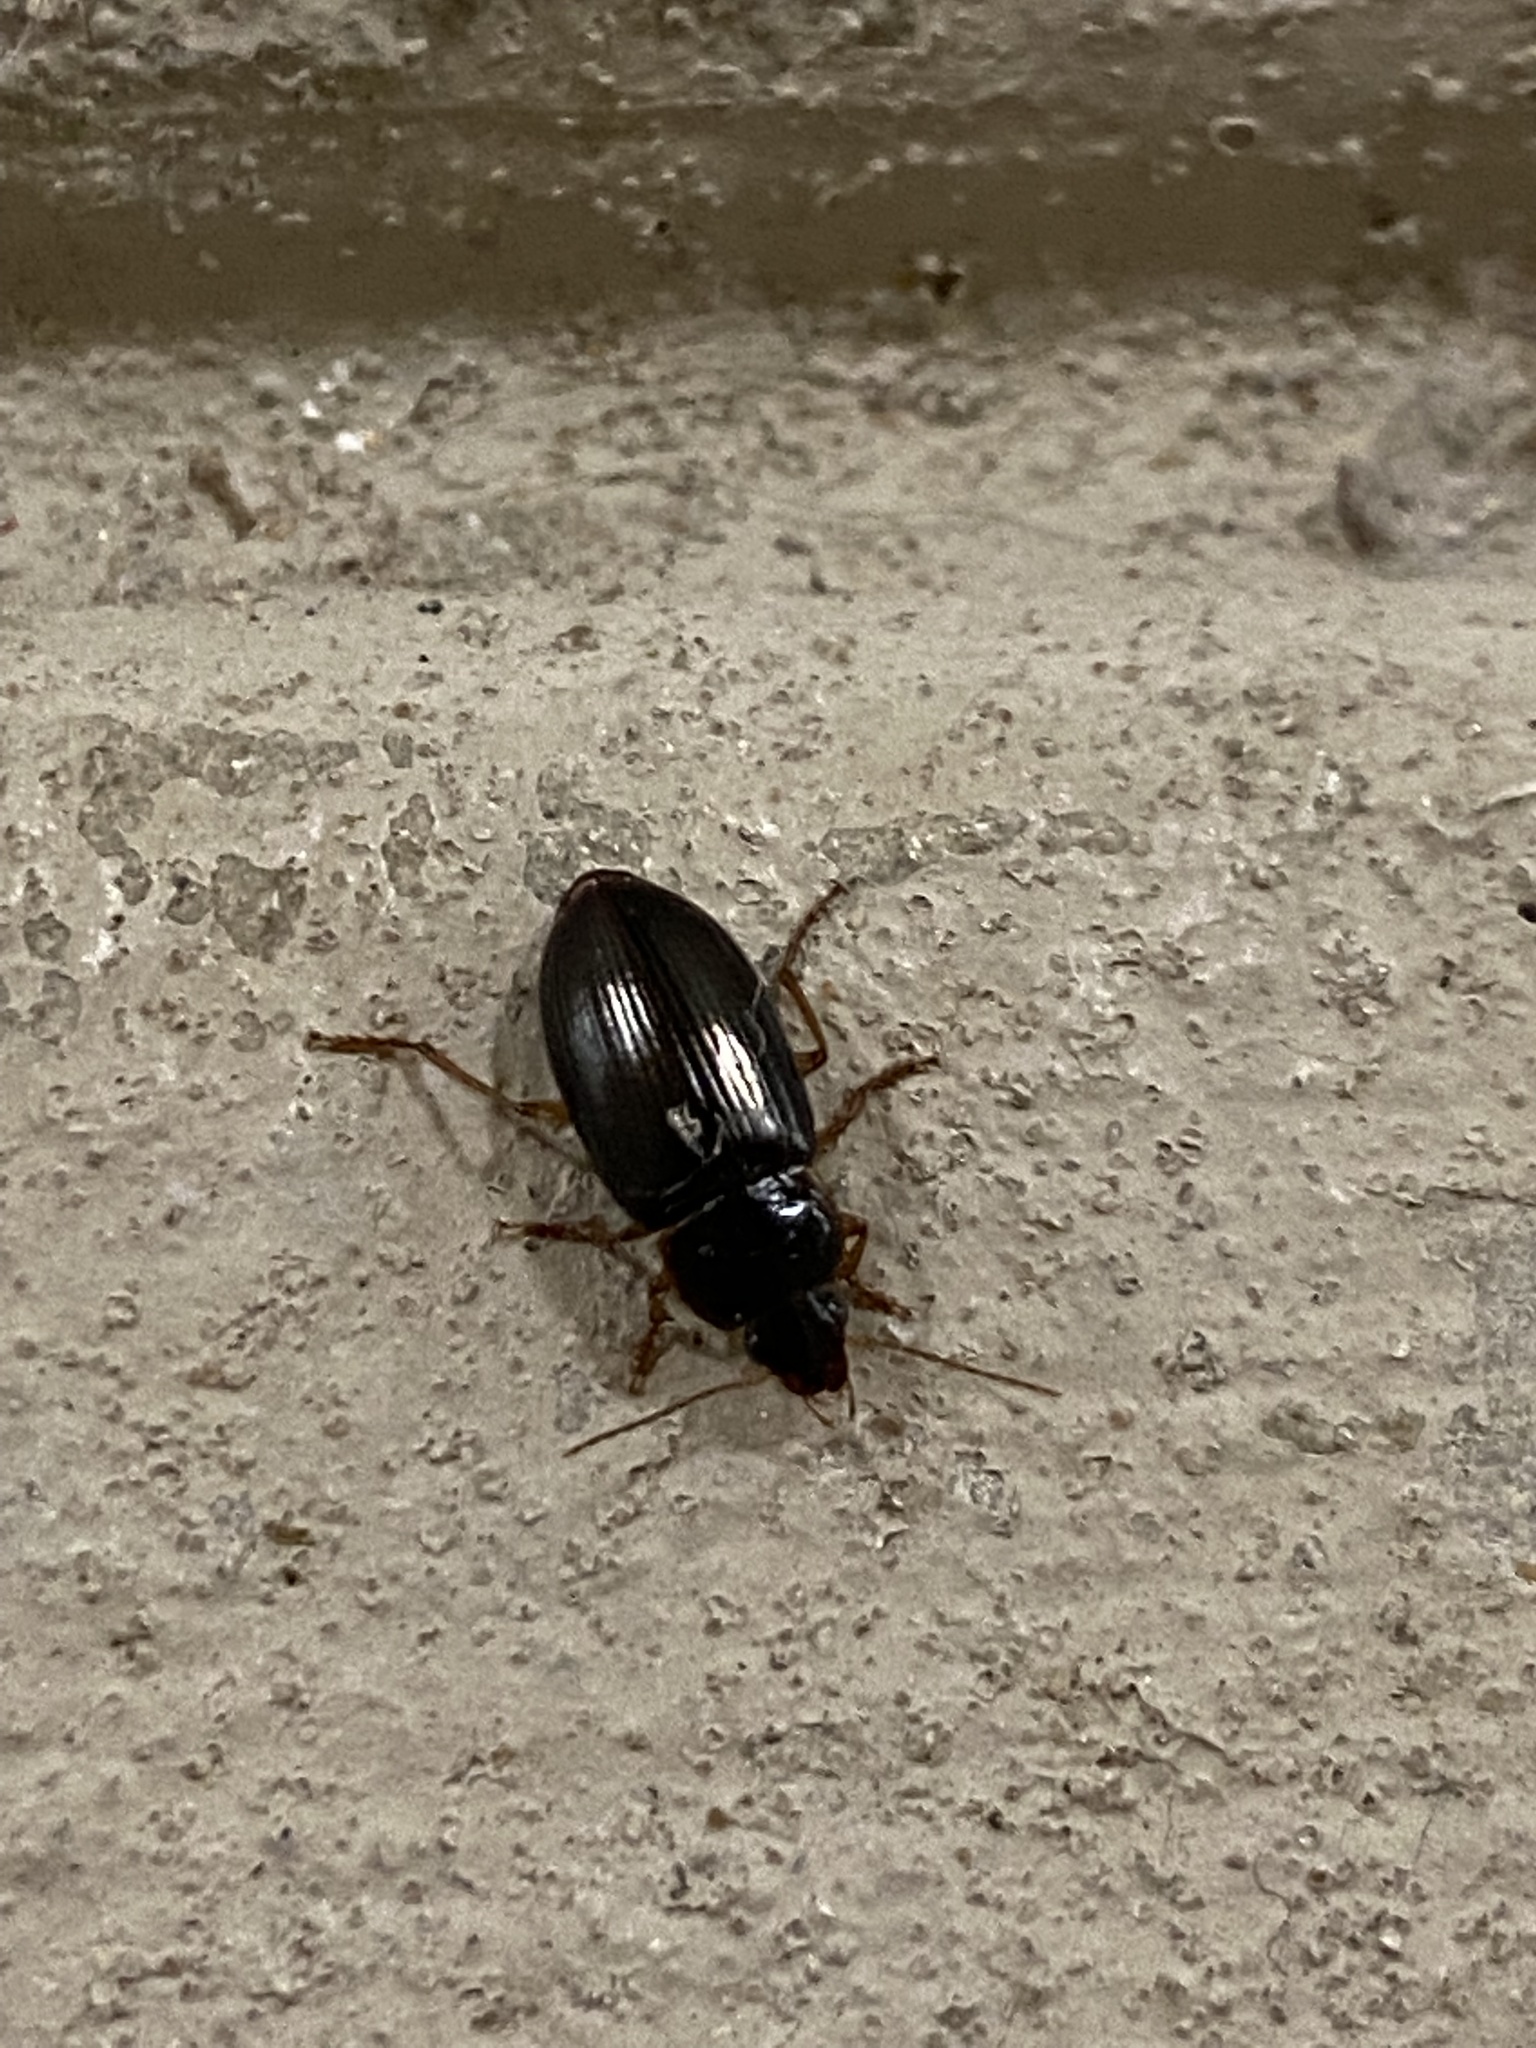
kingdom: Animalia
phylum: Arthropoda
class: Insecta
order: Coleoptera
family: Carabidae
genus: Notiobia
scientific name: Notiobia terminata
